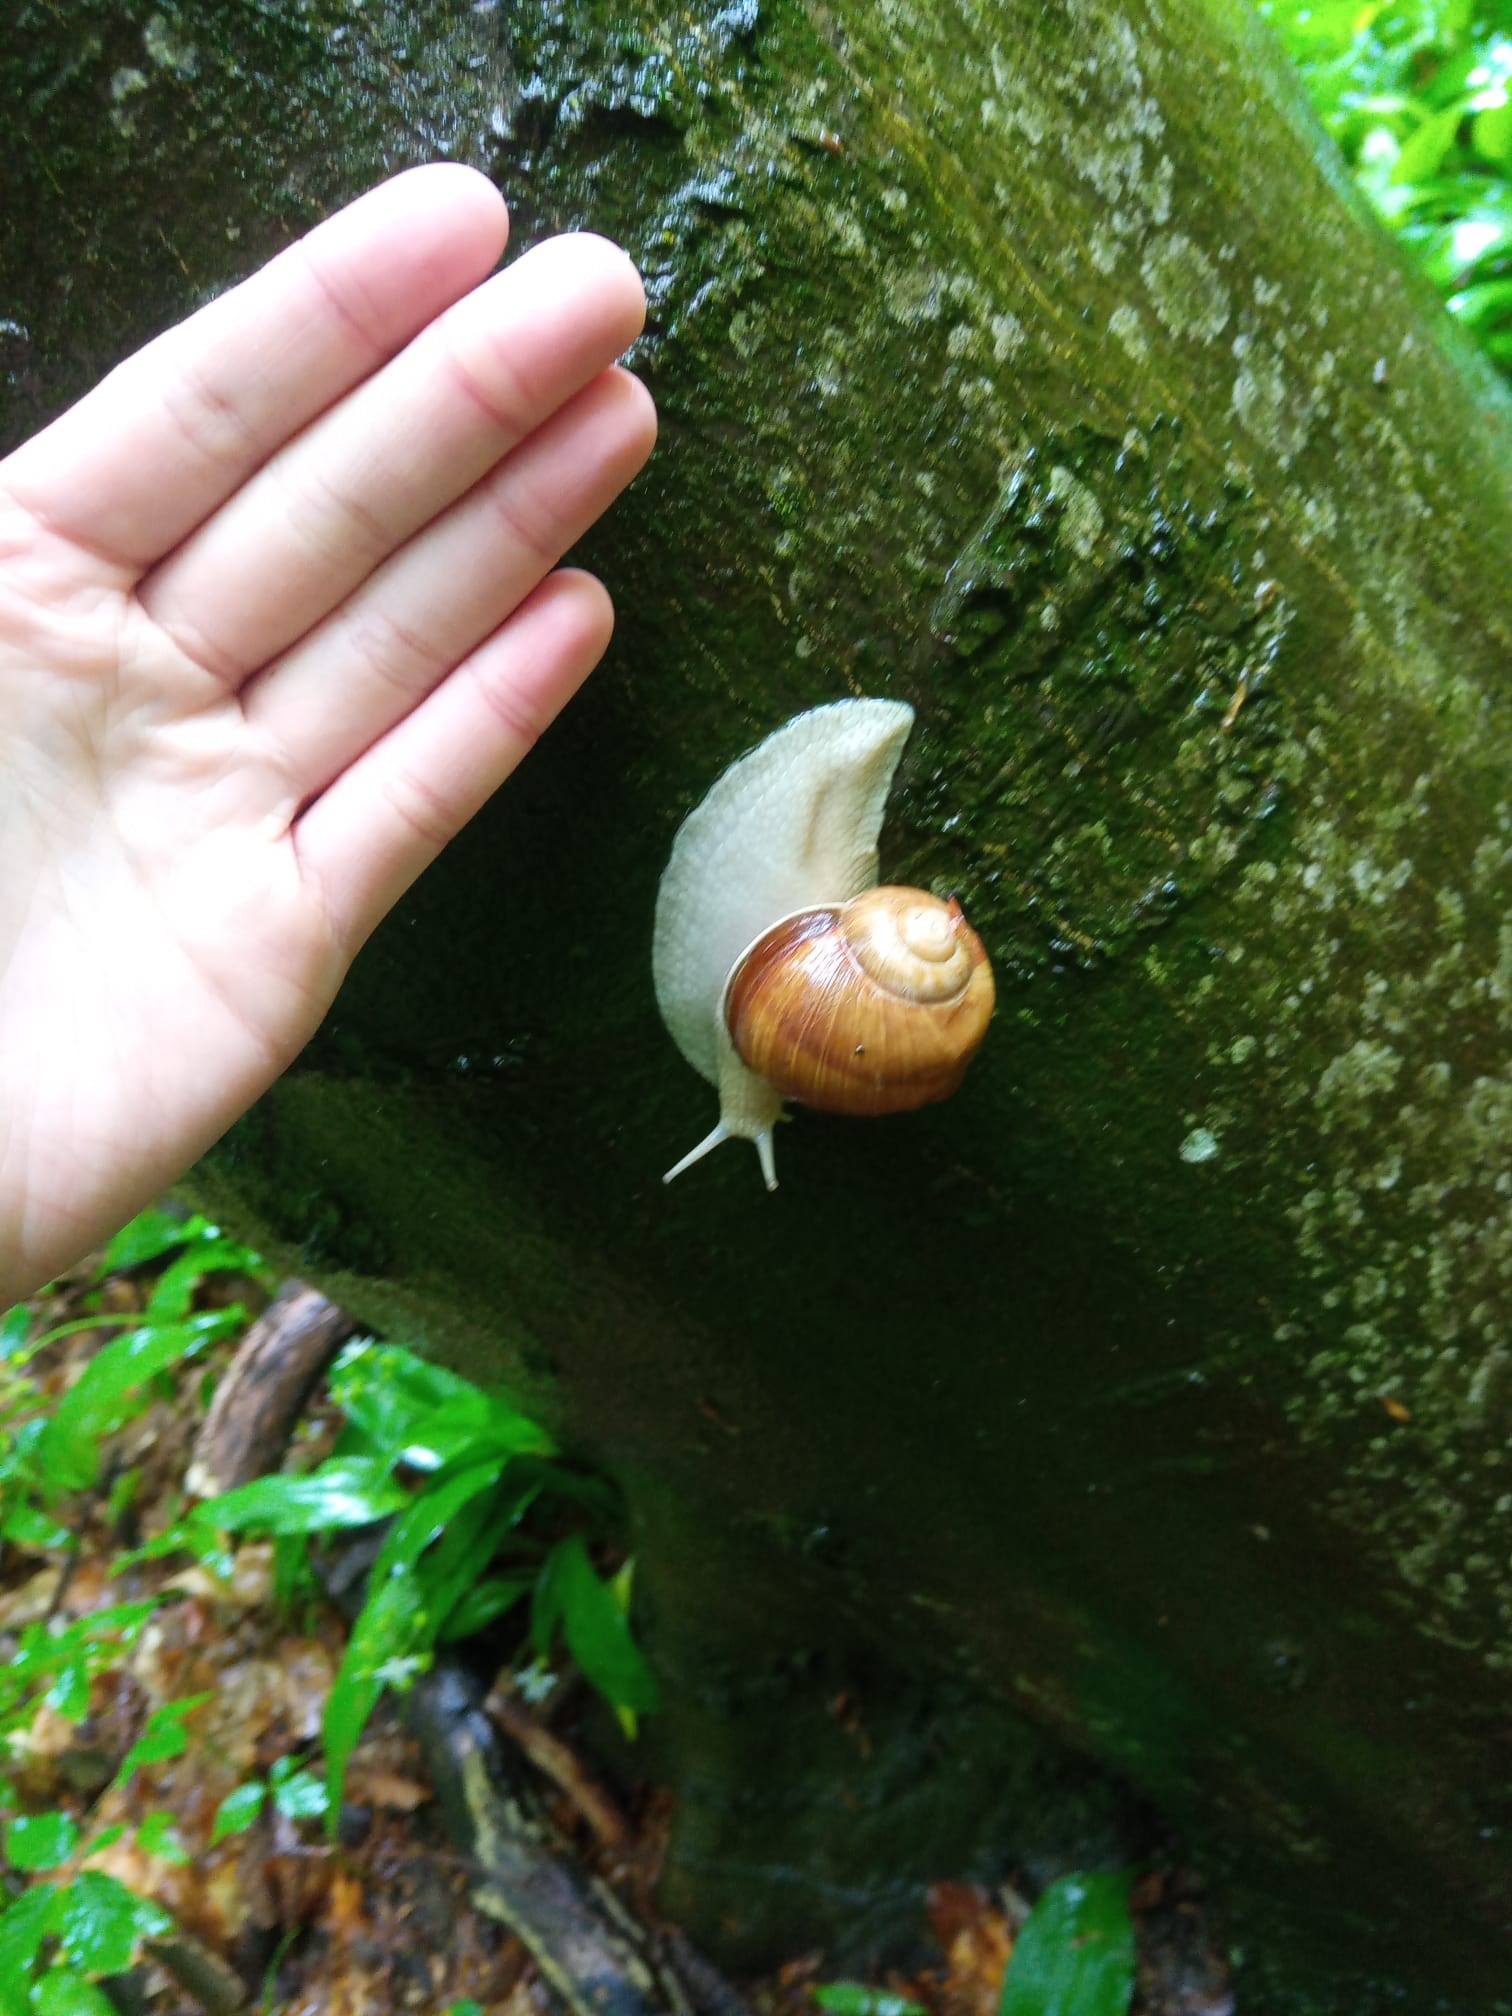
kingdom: Animalia
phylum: Mollusca
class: Gastropoda
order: Stylommatophora
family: Helicidae
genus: Helix
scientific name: Helix pomatia
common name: Roman snail
